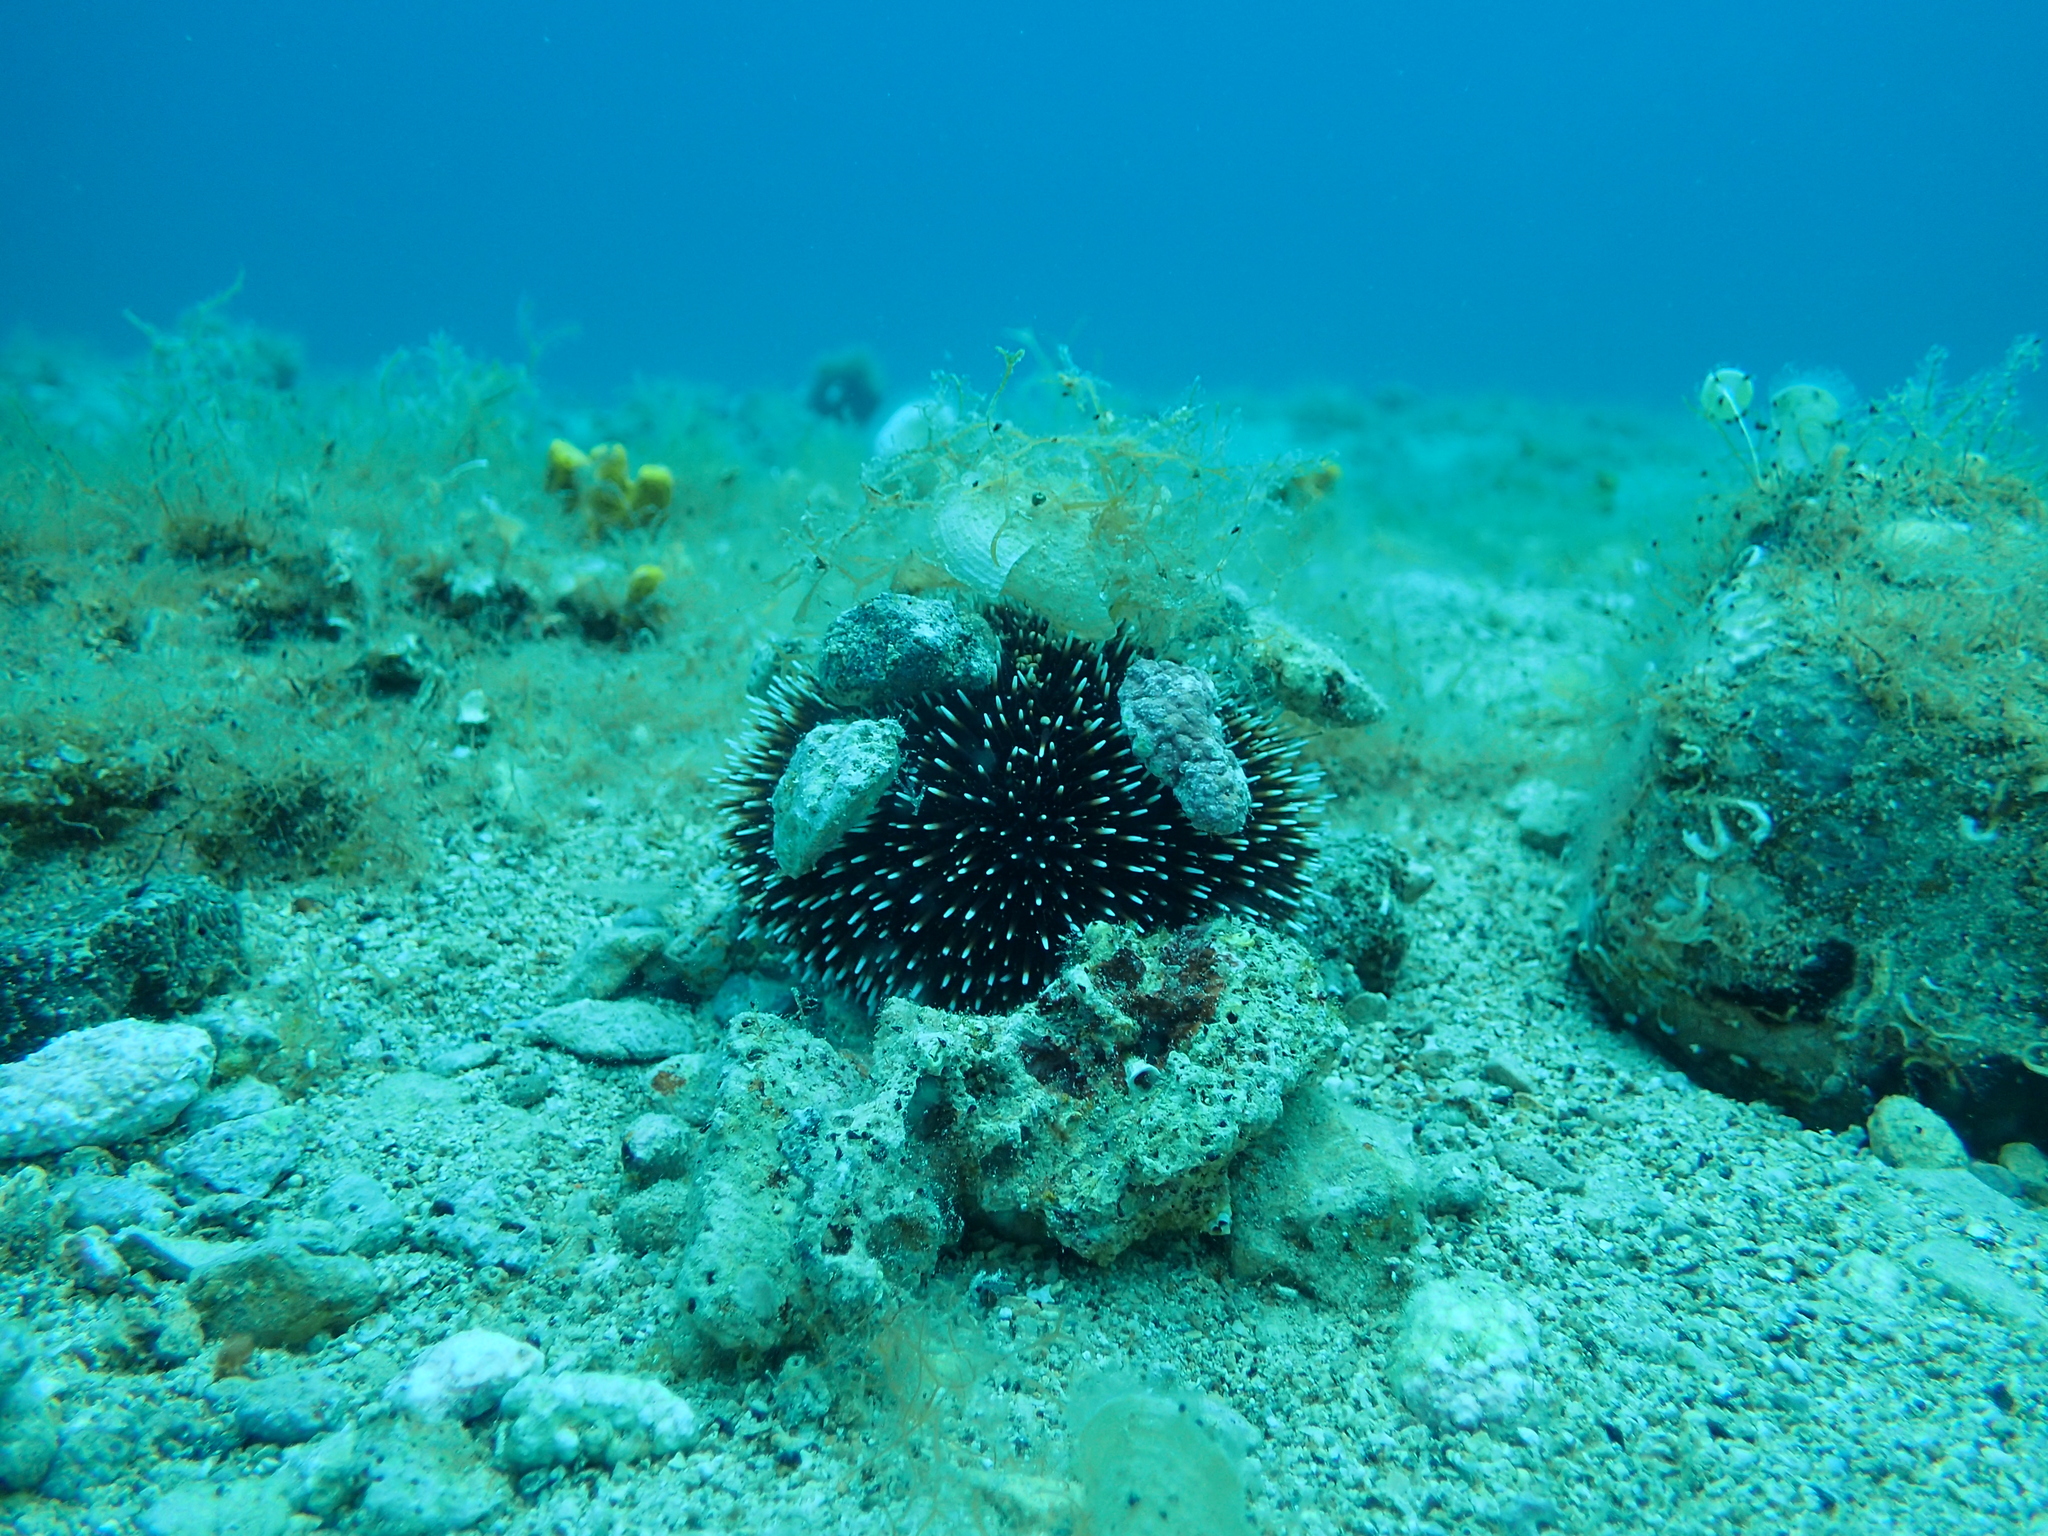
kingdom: Animalia
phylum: Echinodermata
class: Echinoidea
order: Camarodonta
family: Toxopneustidae
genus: Sphaerechinus
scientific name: Sphaerechinus granularis
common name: Violet sea urchin
